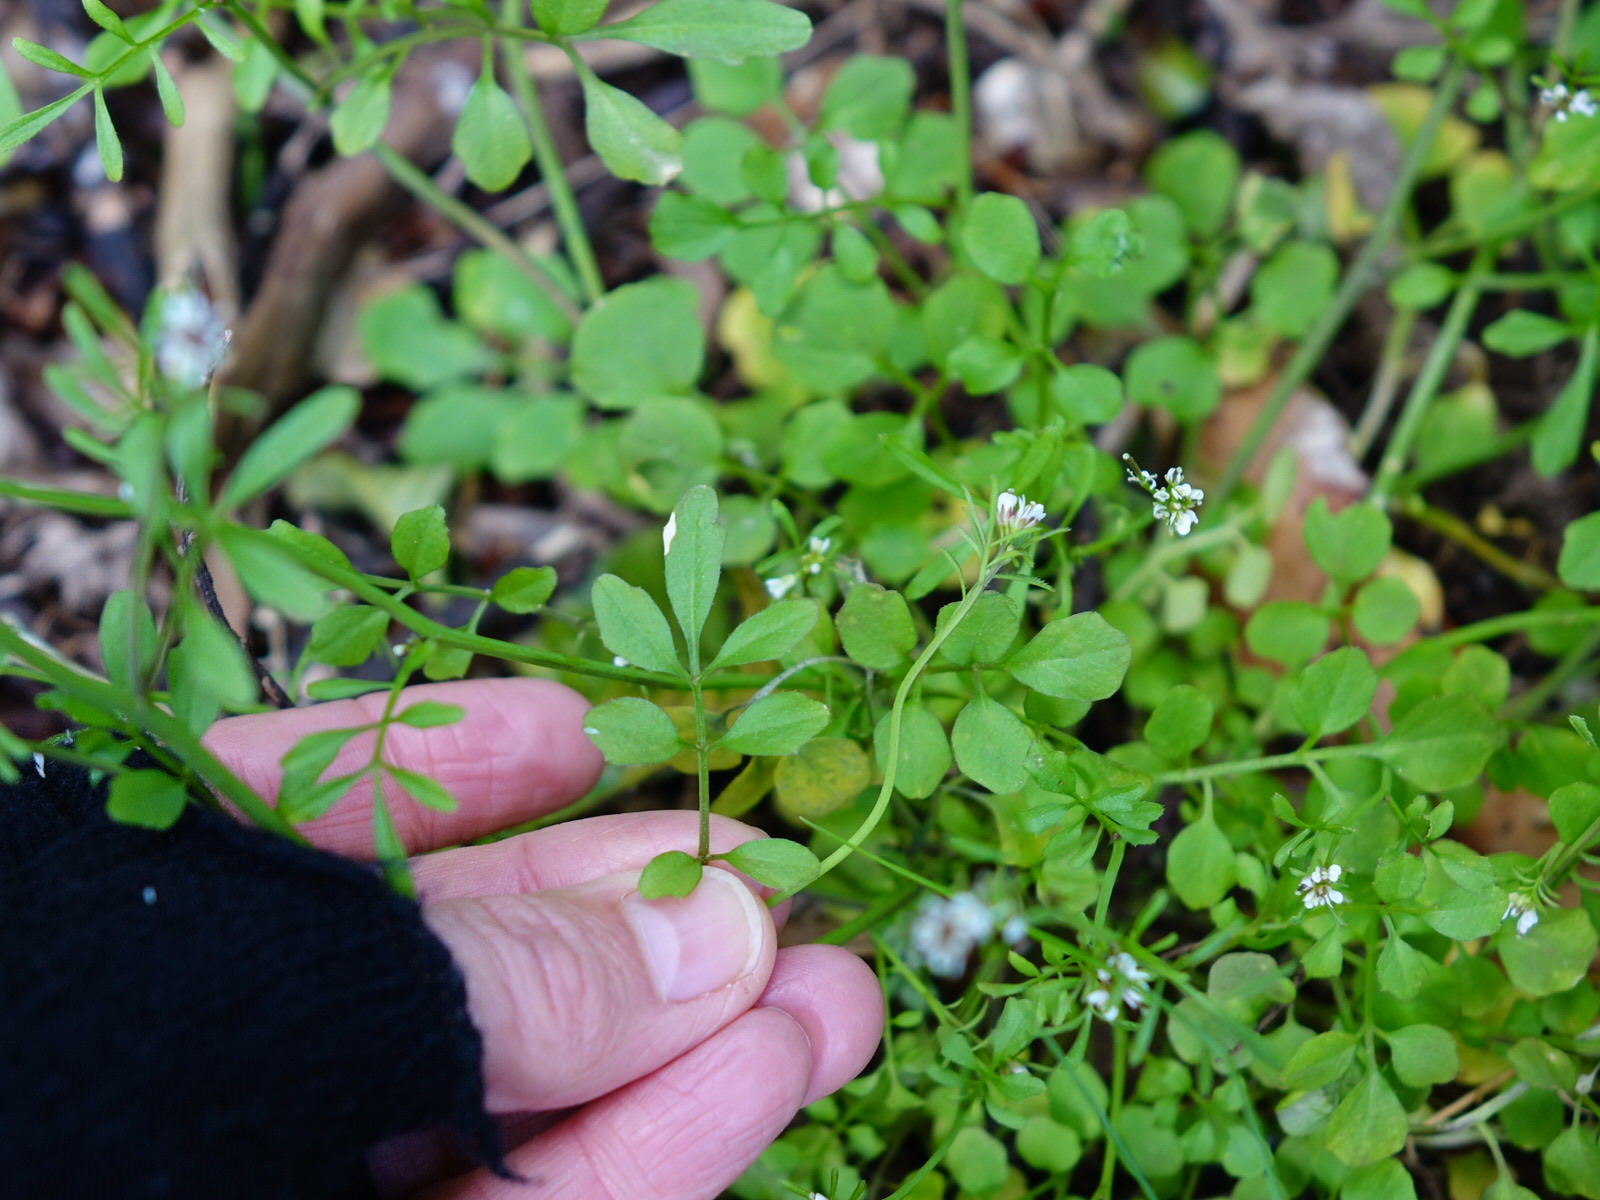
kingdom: Plantae
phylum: Tracheophyta
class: Magnoliopsida
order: Brassicales
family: Brassicaceae
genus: Cardamine
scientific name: Cardamine hirsuta
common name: Hairy bittercress
